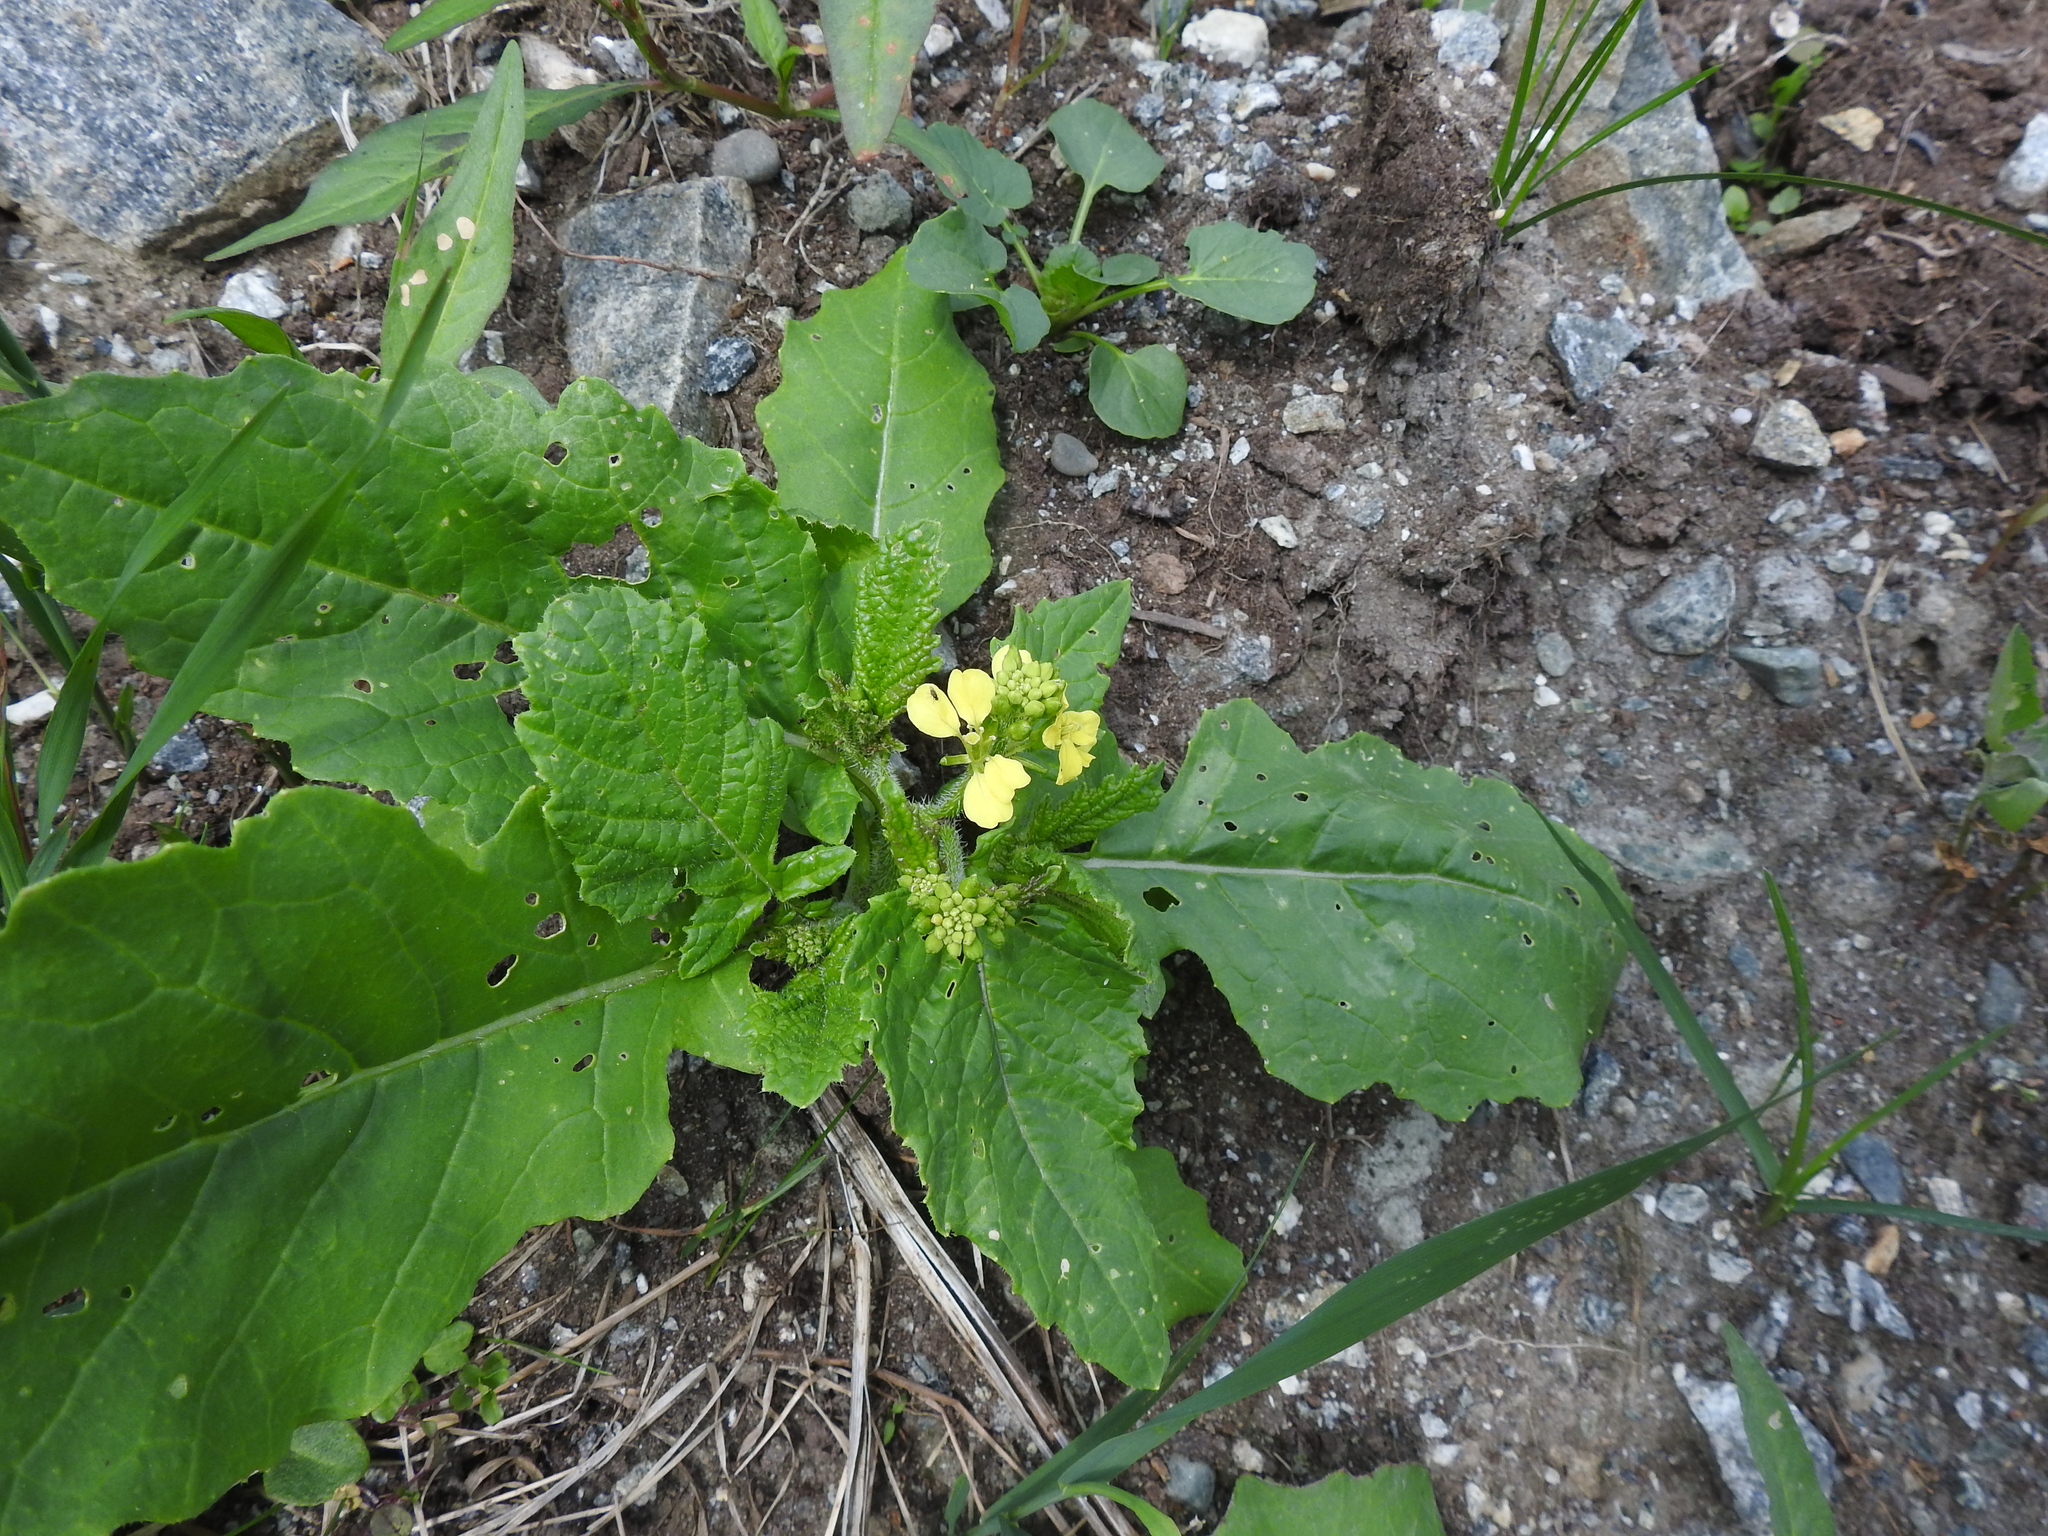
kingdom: Plantae
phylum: Tracheophyta
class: Magnoliopsida
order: Brassicales
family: Brassicaceae
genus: Sinapis
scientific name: Sinapis arvensis
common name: Charlock
